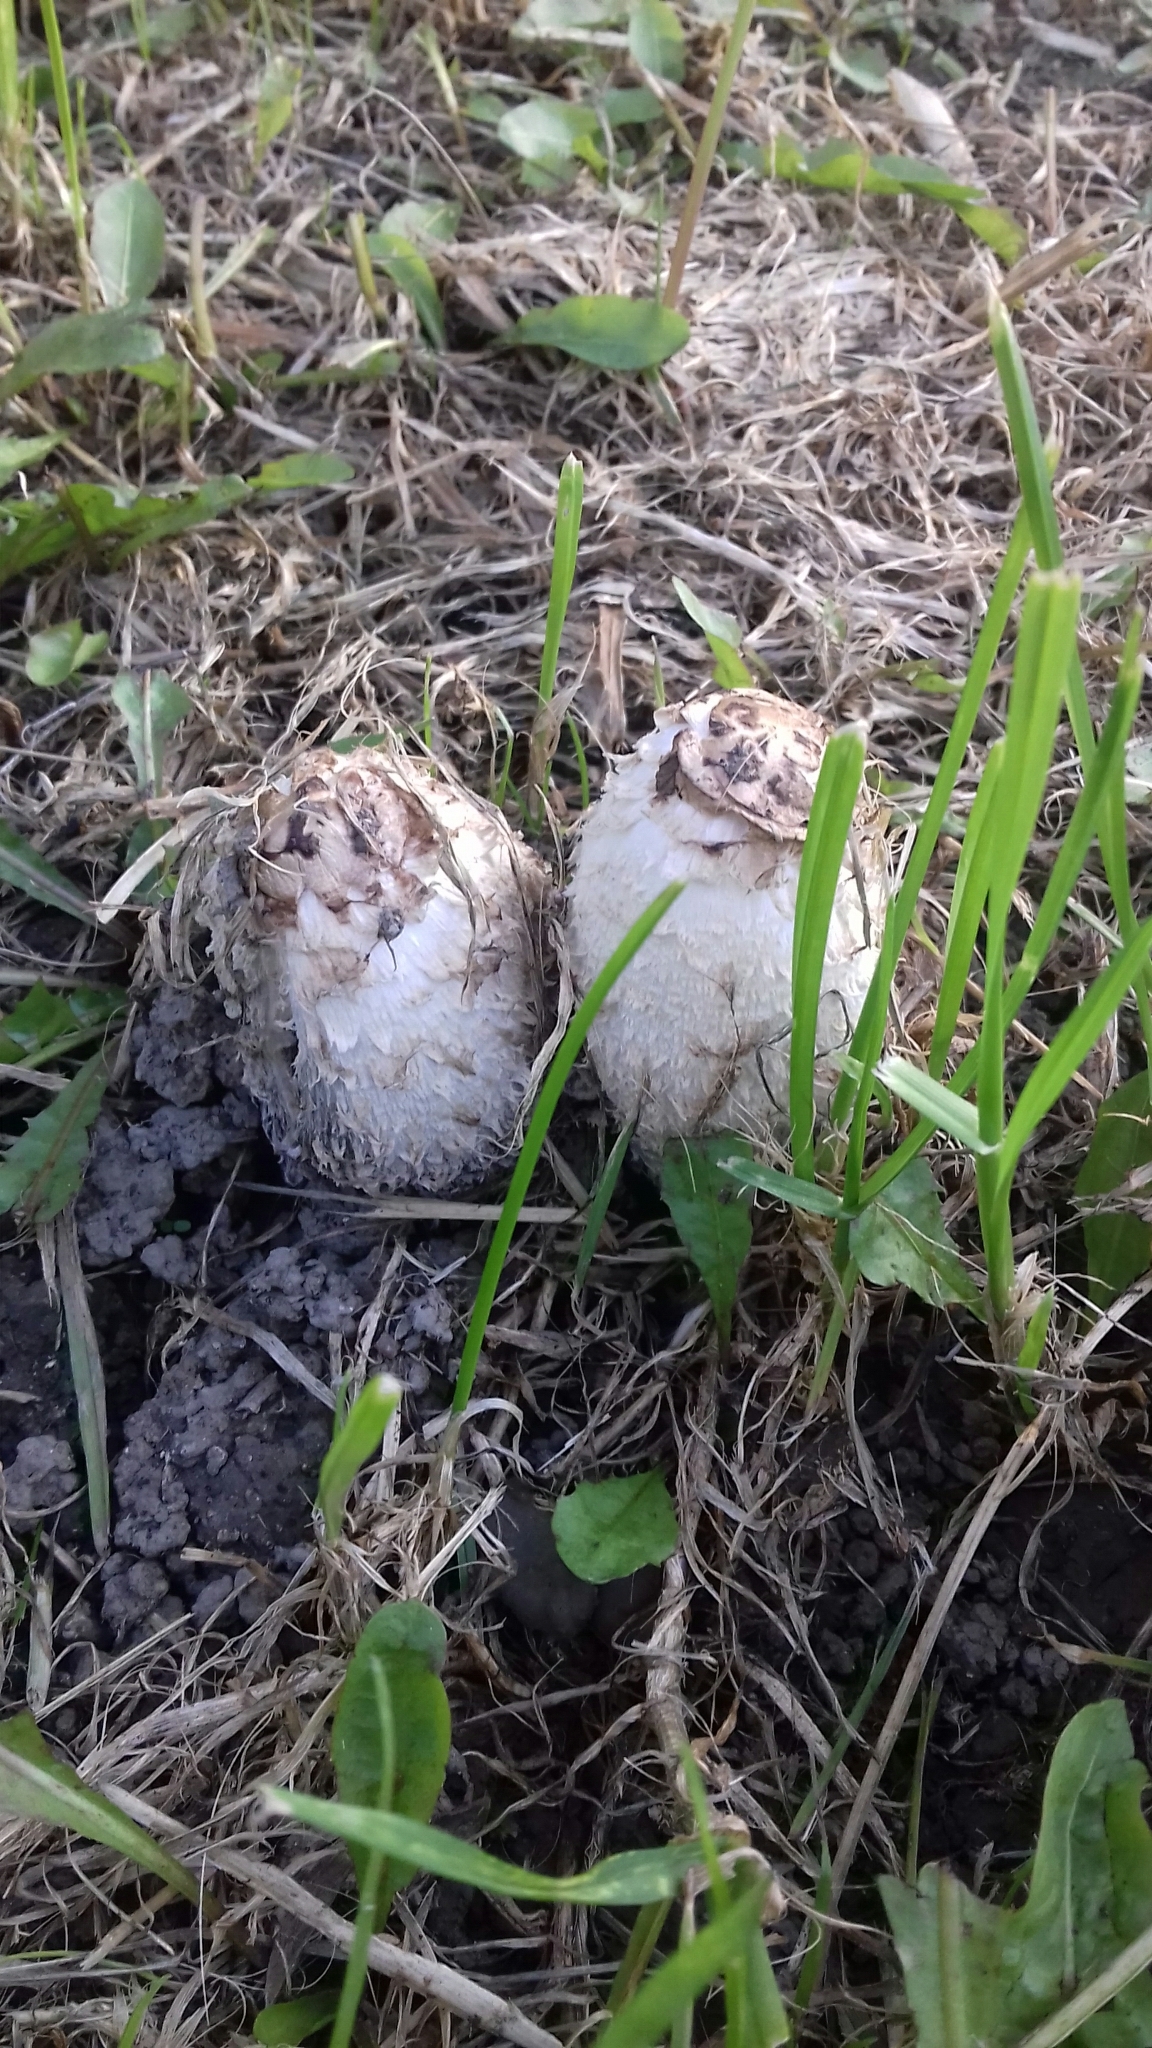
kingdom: Fungi
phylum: Basidiomycota
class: Agaricomycetes
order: Agaricales
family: Agaricaceae
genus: Coprinus
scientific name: Coprinus comatus
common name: Lawyer's wig
